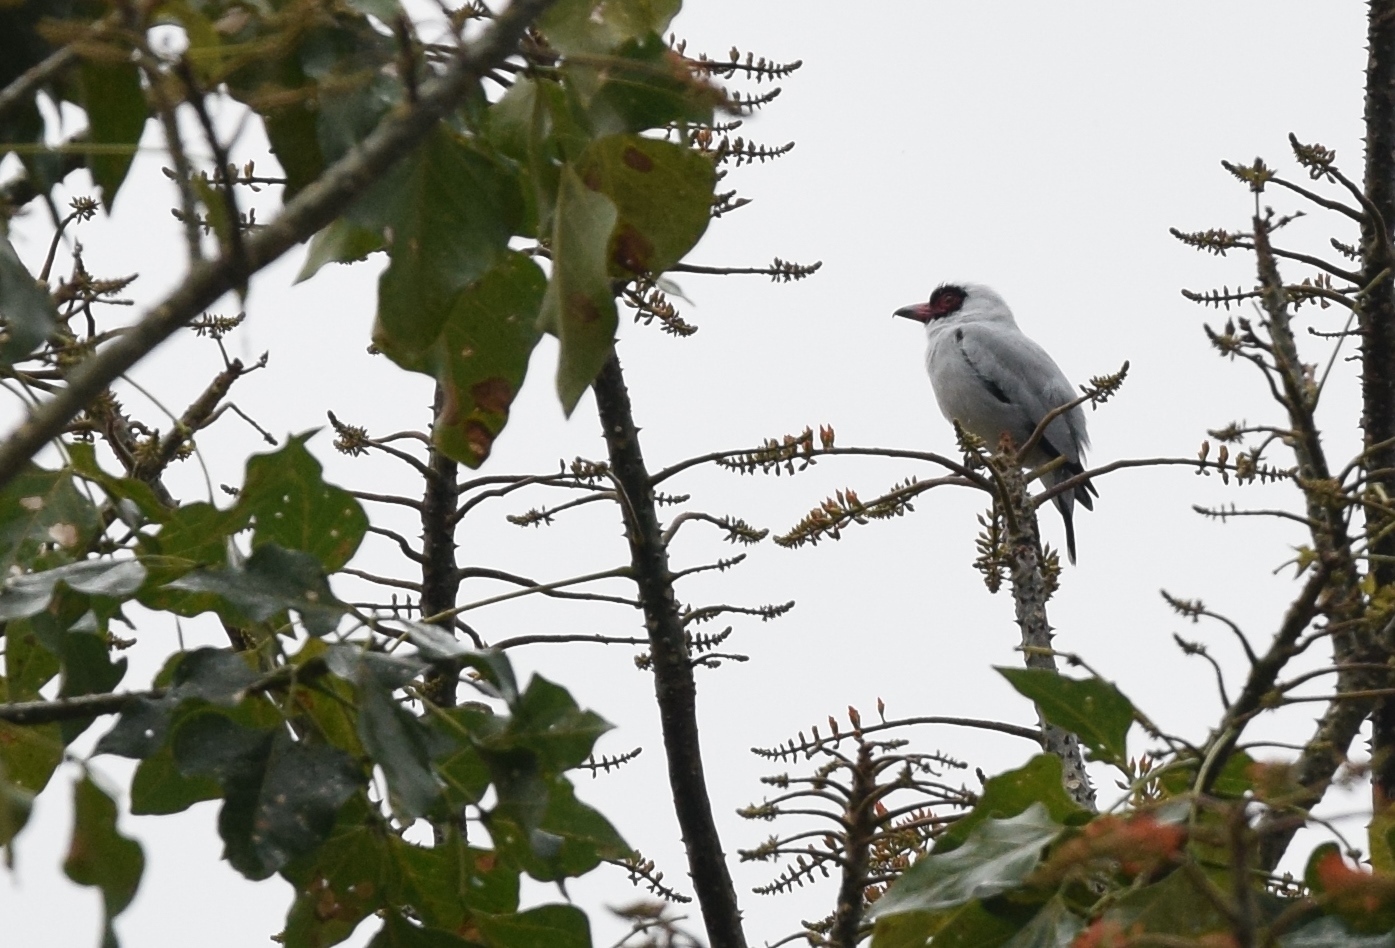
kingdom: Animalia
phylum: Chordata
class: Aves
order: Passeriformes
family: Cotingidae
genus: Tityra
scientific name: Tityra semifasciata
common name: Masked tityra
